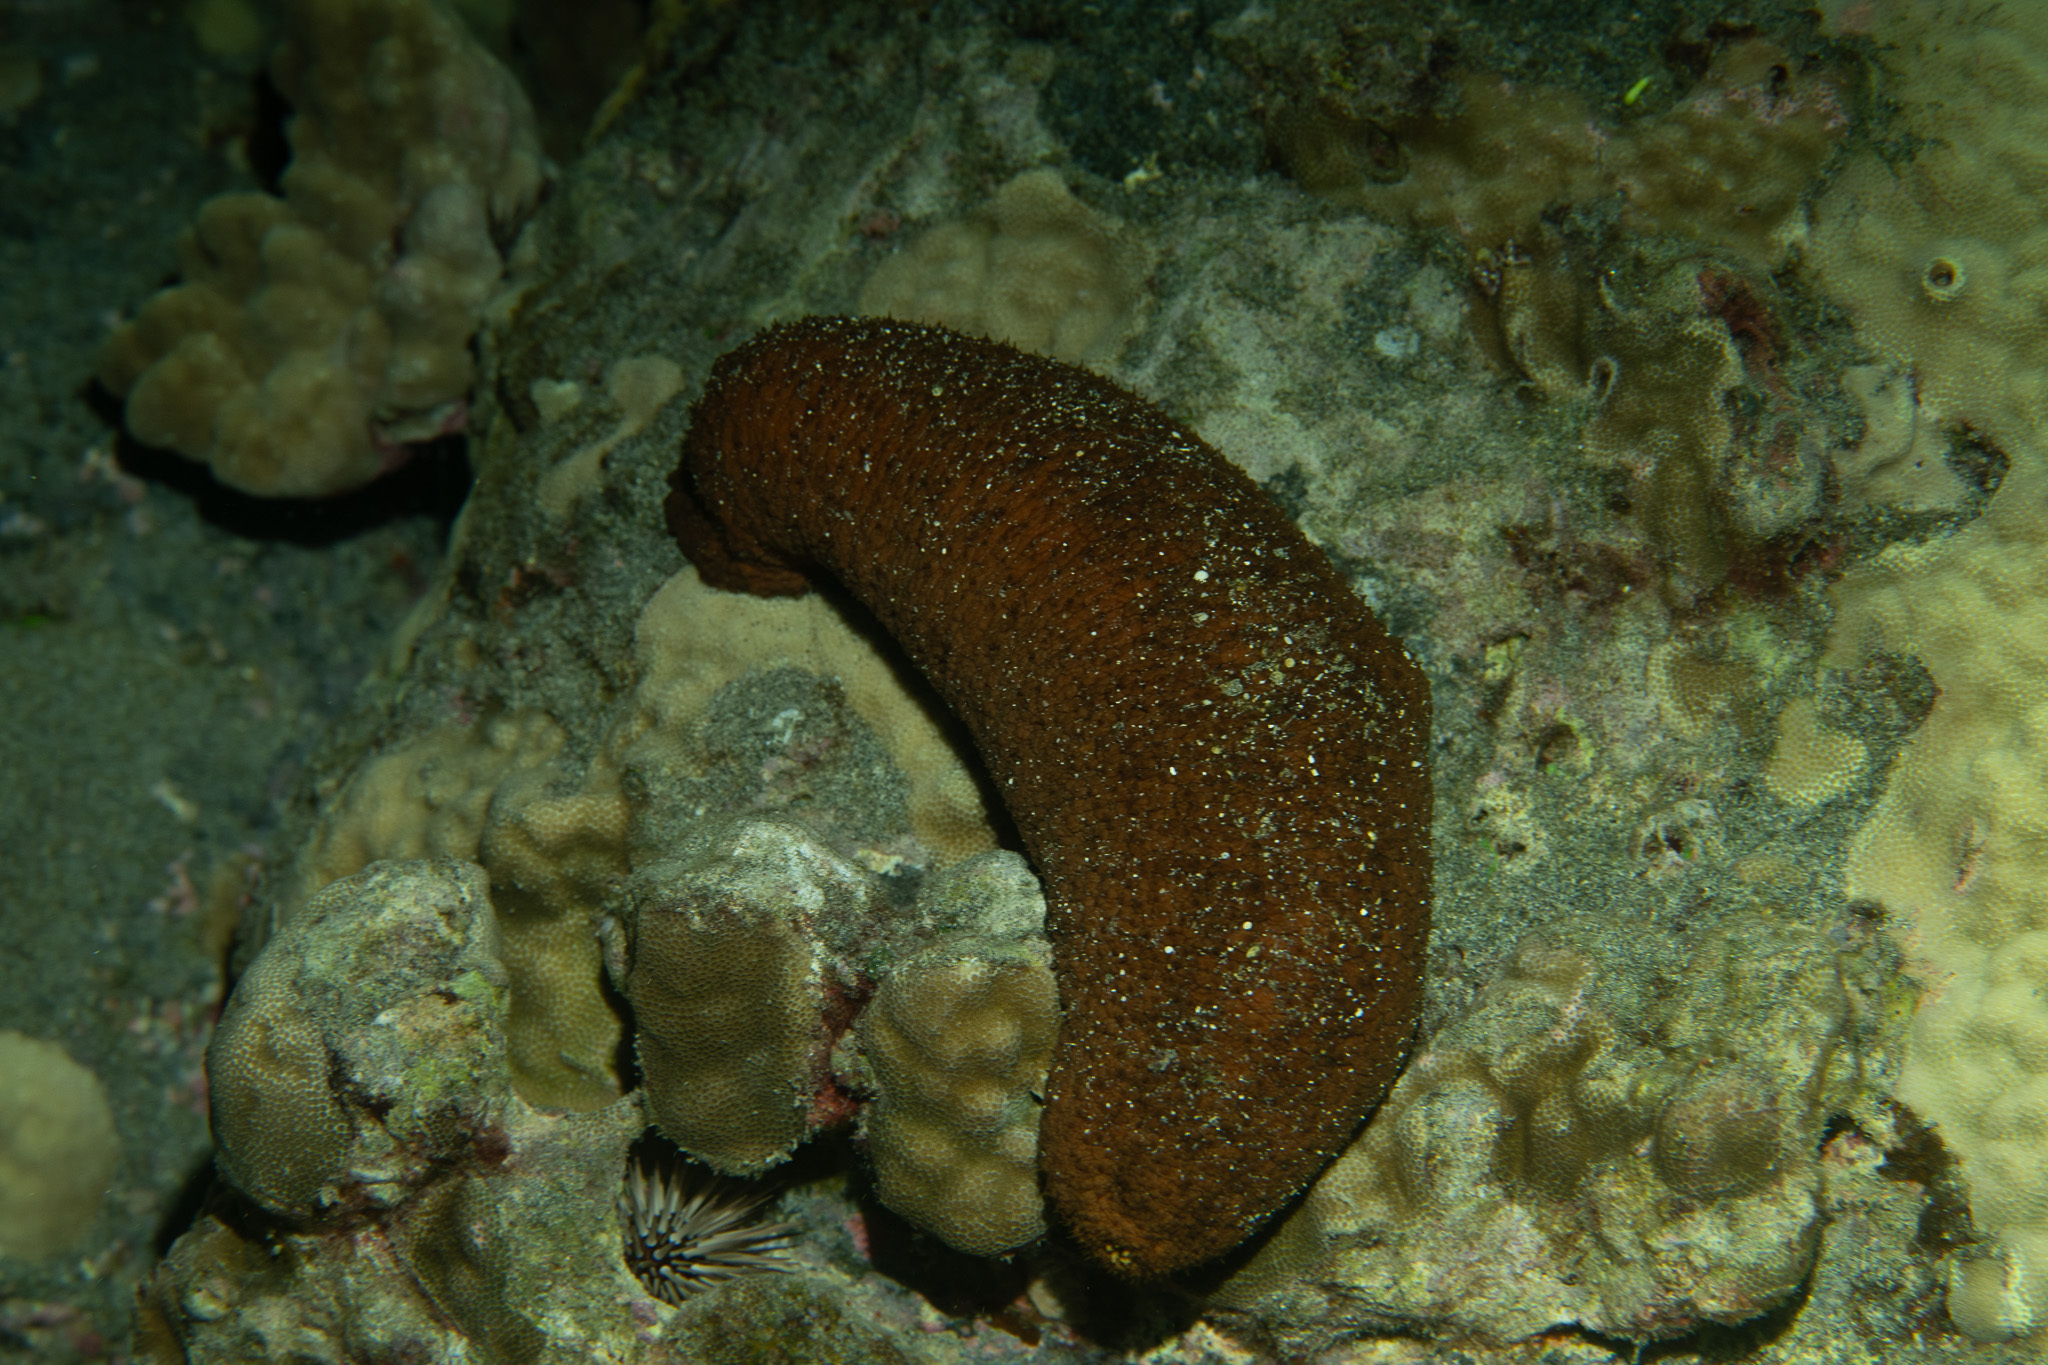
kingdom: Animalia
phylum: Echinodermata
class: Holothuroidea
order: Holothuriida
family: Holothuriidae
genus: Actinopyga
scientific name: Actinopyga obesa
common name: Plump sea cucumber
